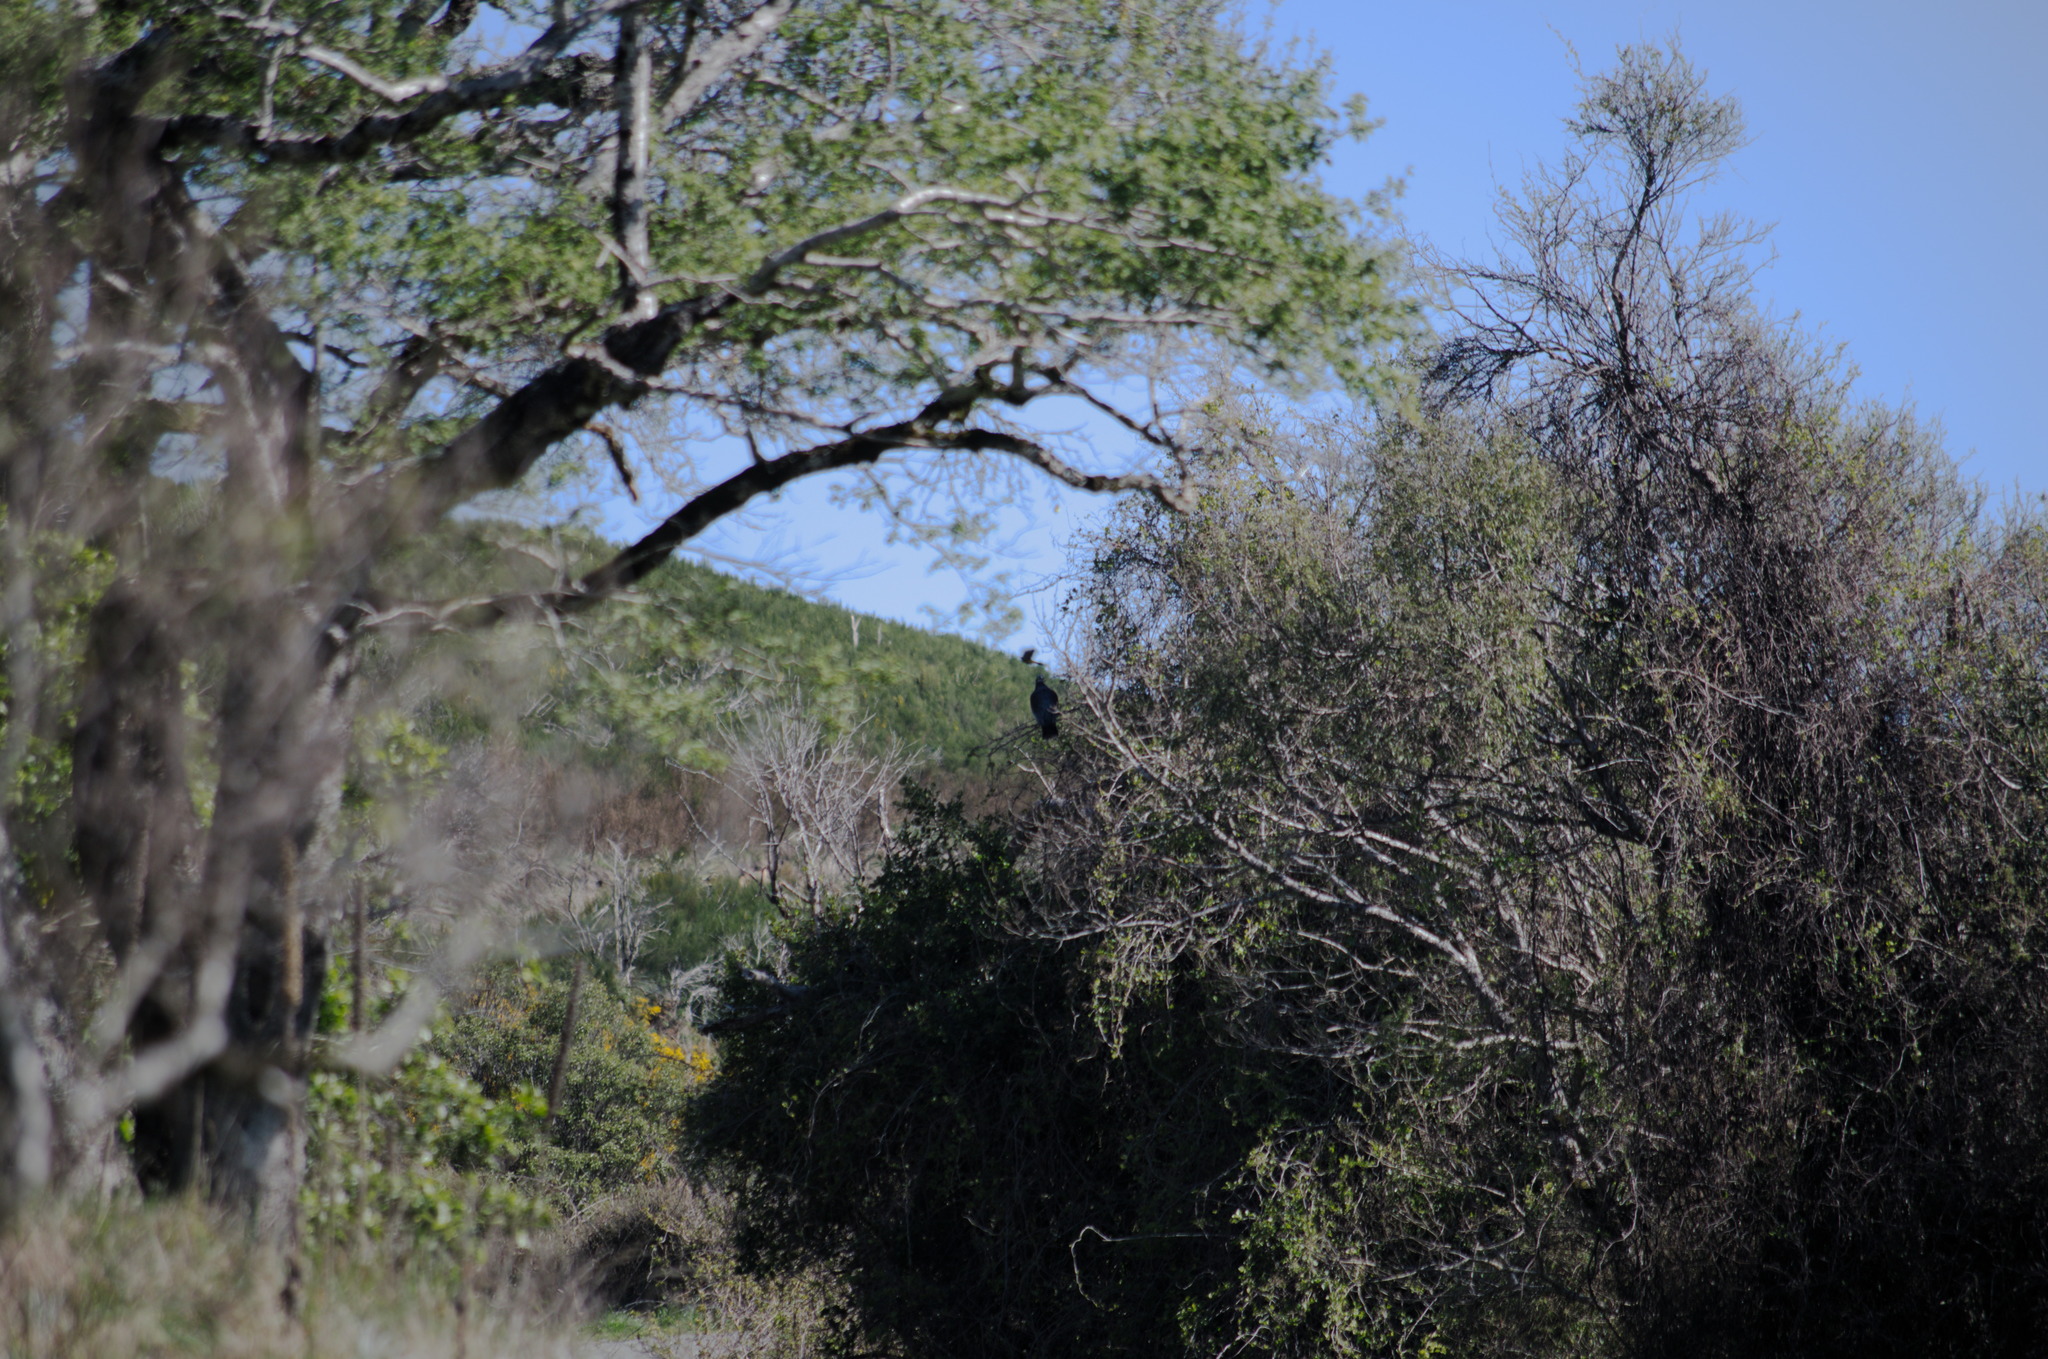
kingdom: Animalia
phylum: Chordata
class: Aves
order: Columbiformes
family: Columbidae
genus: Hemiphaga
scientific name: Hemiphaga novaeseelandiae
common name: New zealand pigeon
